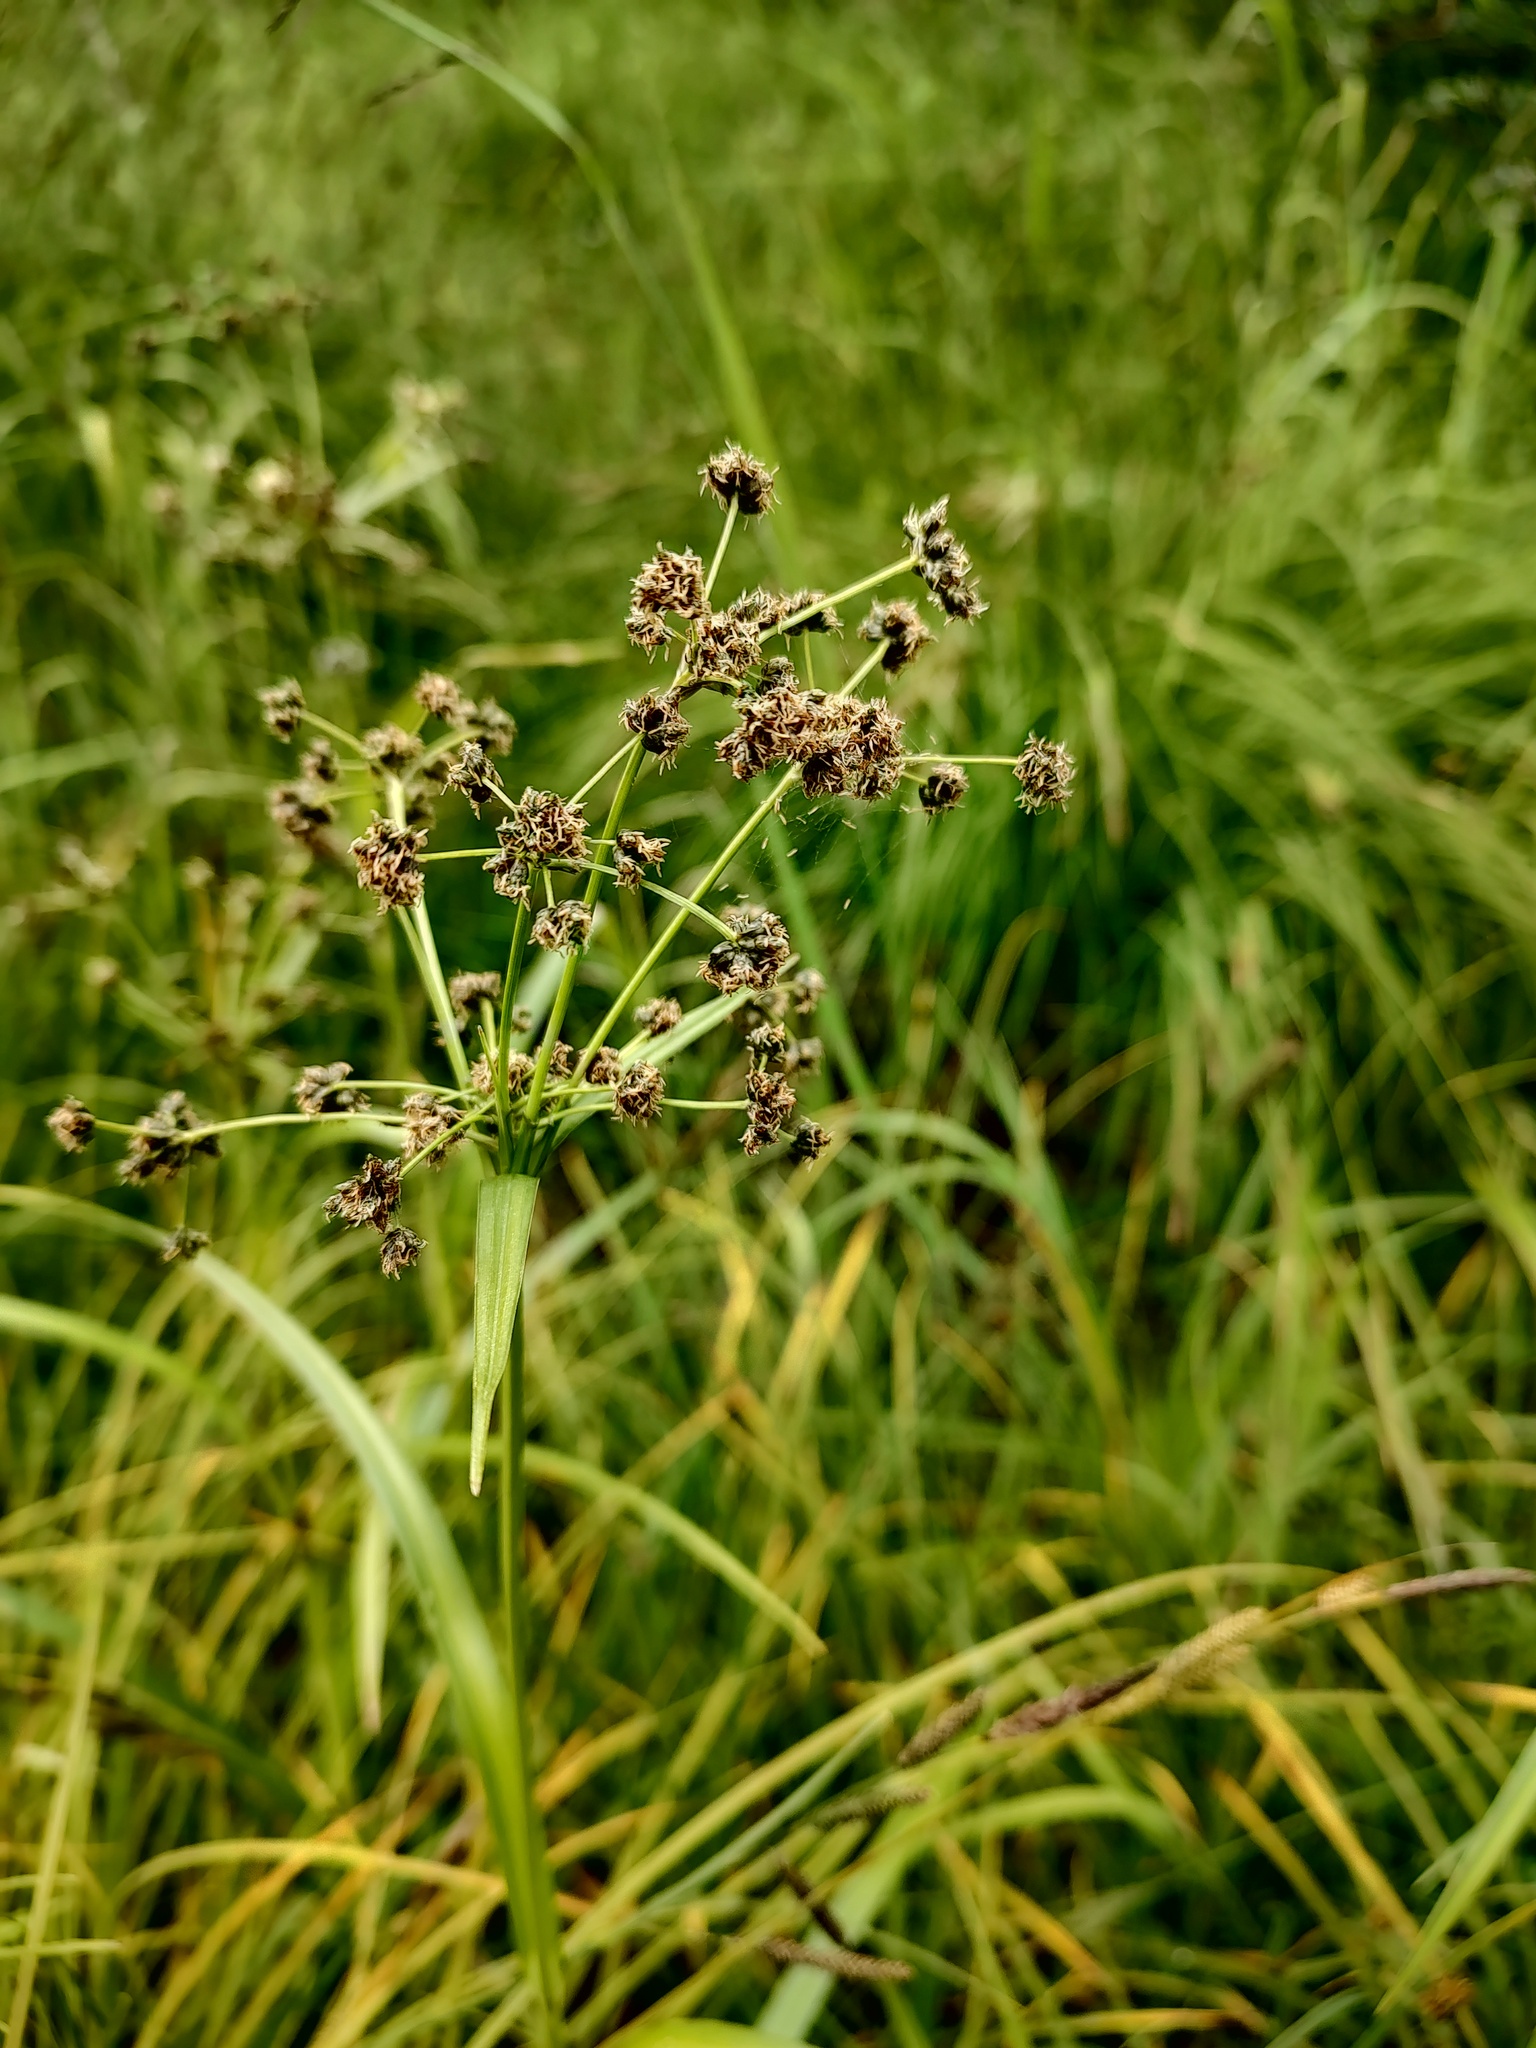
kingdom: Plantae
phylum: Tracheophyta
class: Liliopsida
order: Poales
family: Cyperaceae
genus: Scirpus
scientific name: Scirpus microcarpus
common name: Panicled bulrush
